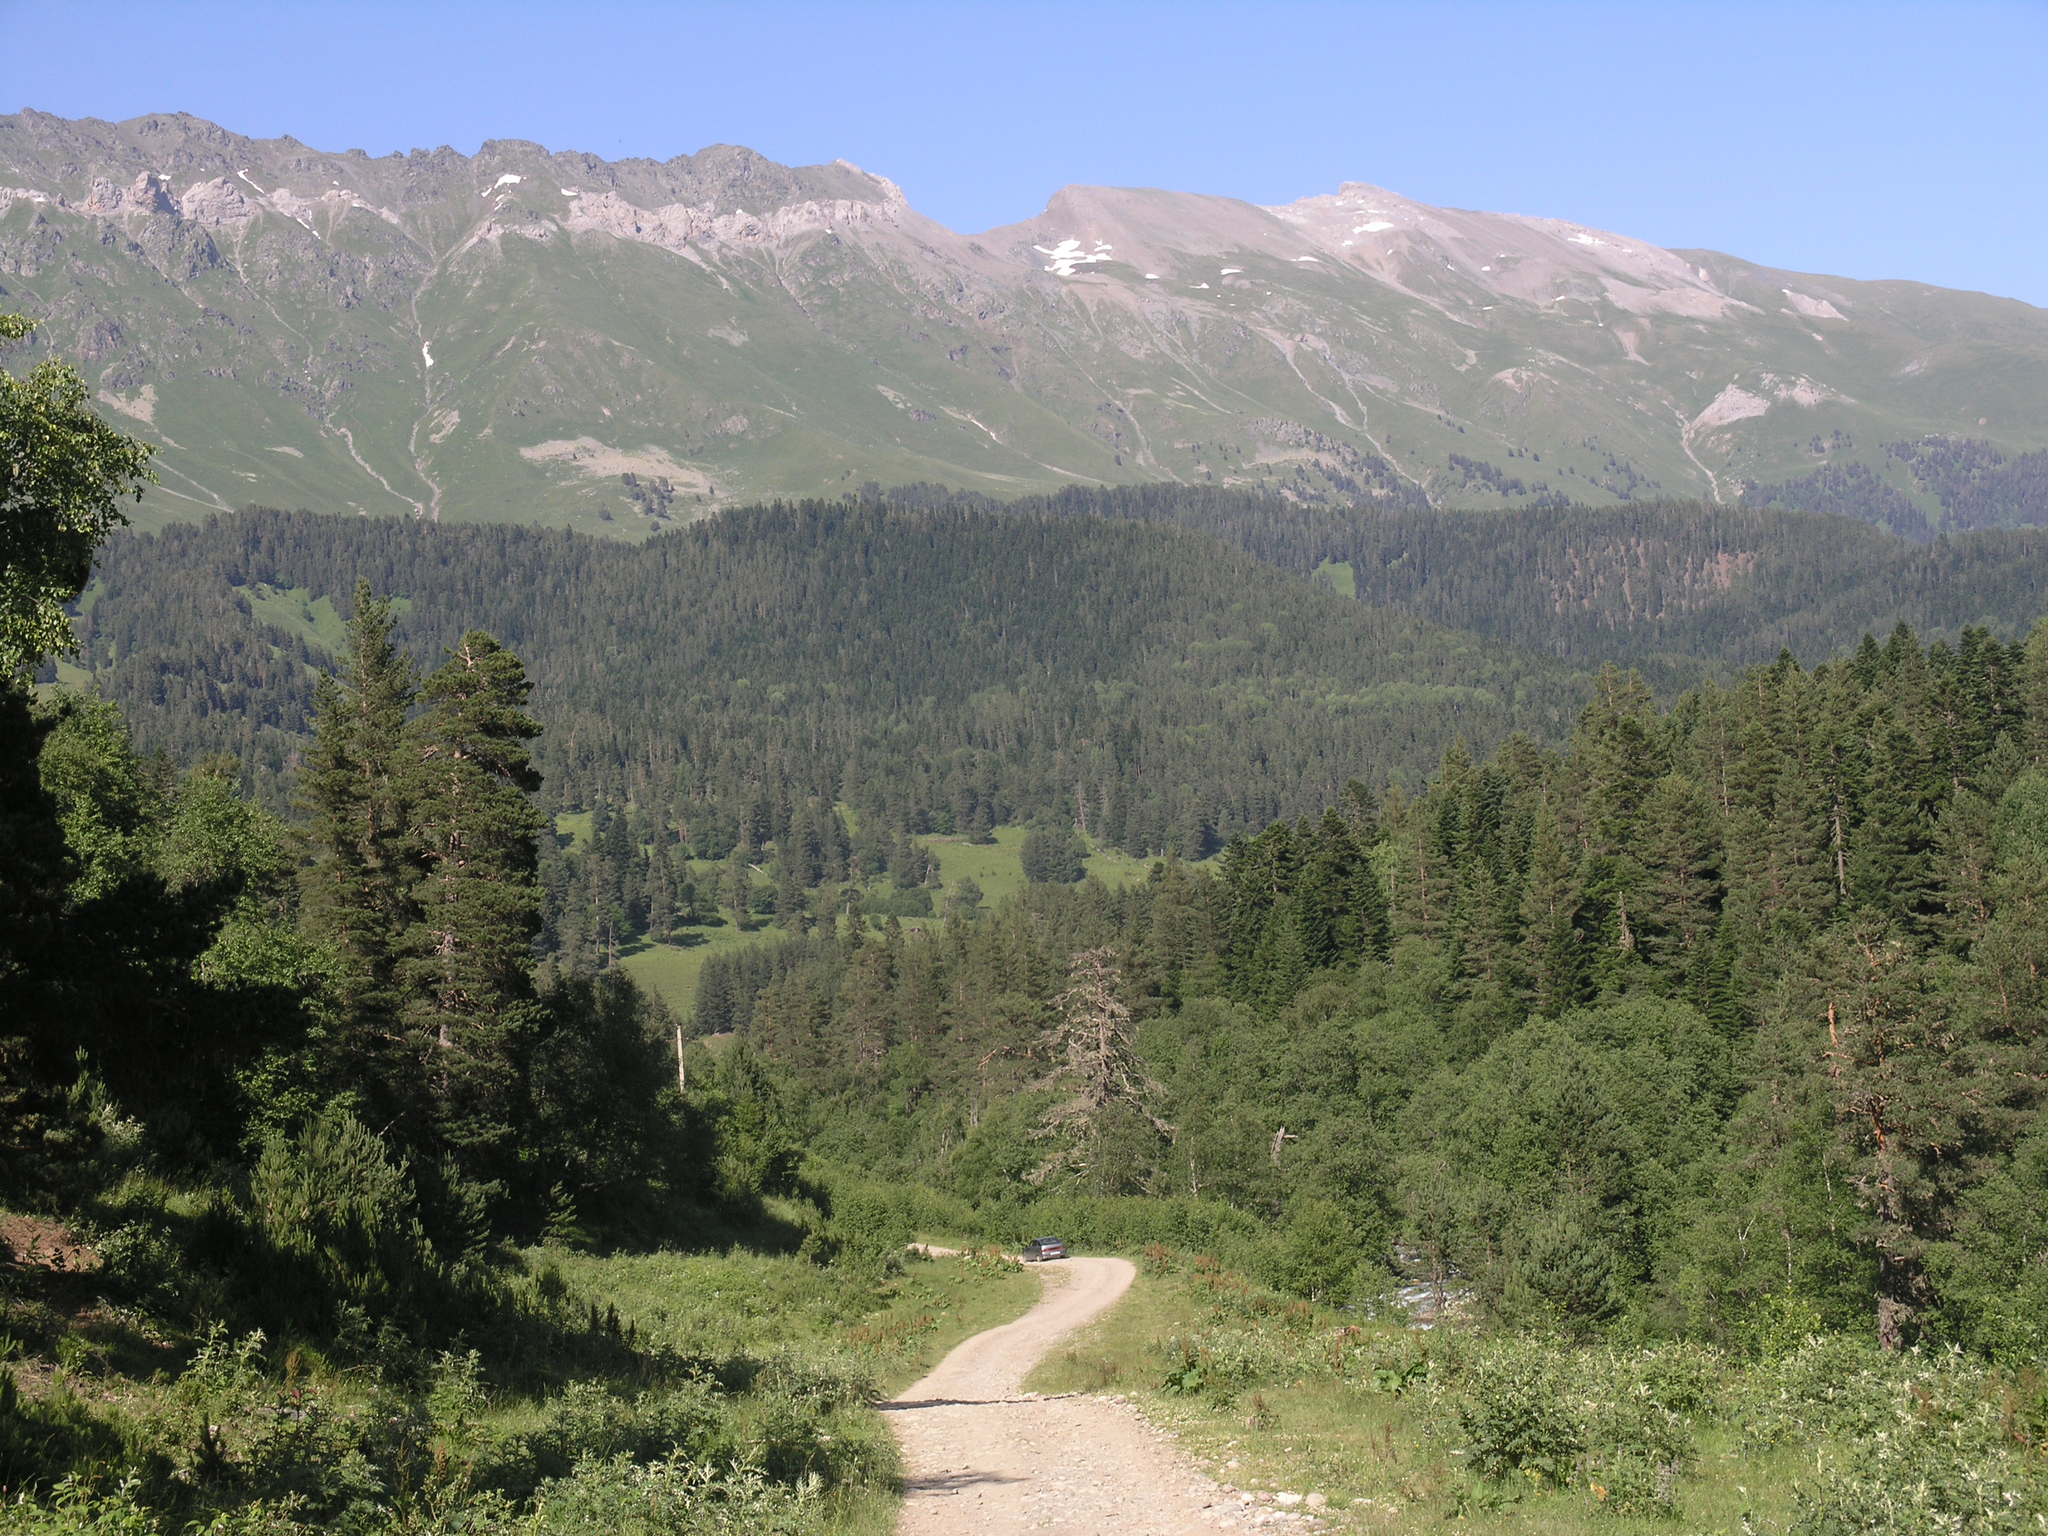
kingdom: Plantae
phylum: Tracheophyta
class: Pinopsida
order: Pinales
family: Pinaceae
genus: Pinus
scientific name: Pinus sylvestris
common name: Scots pine
